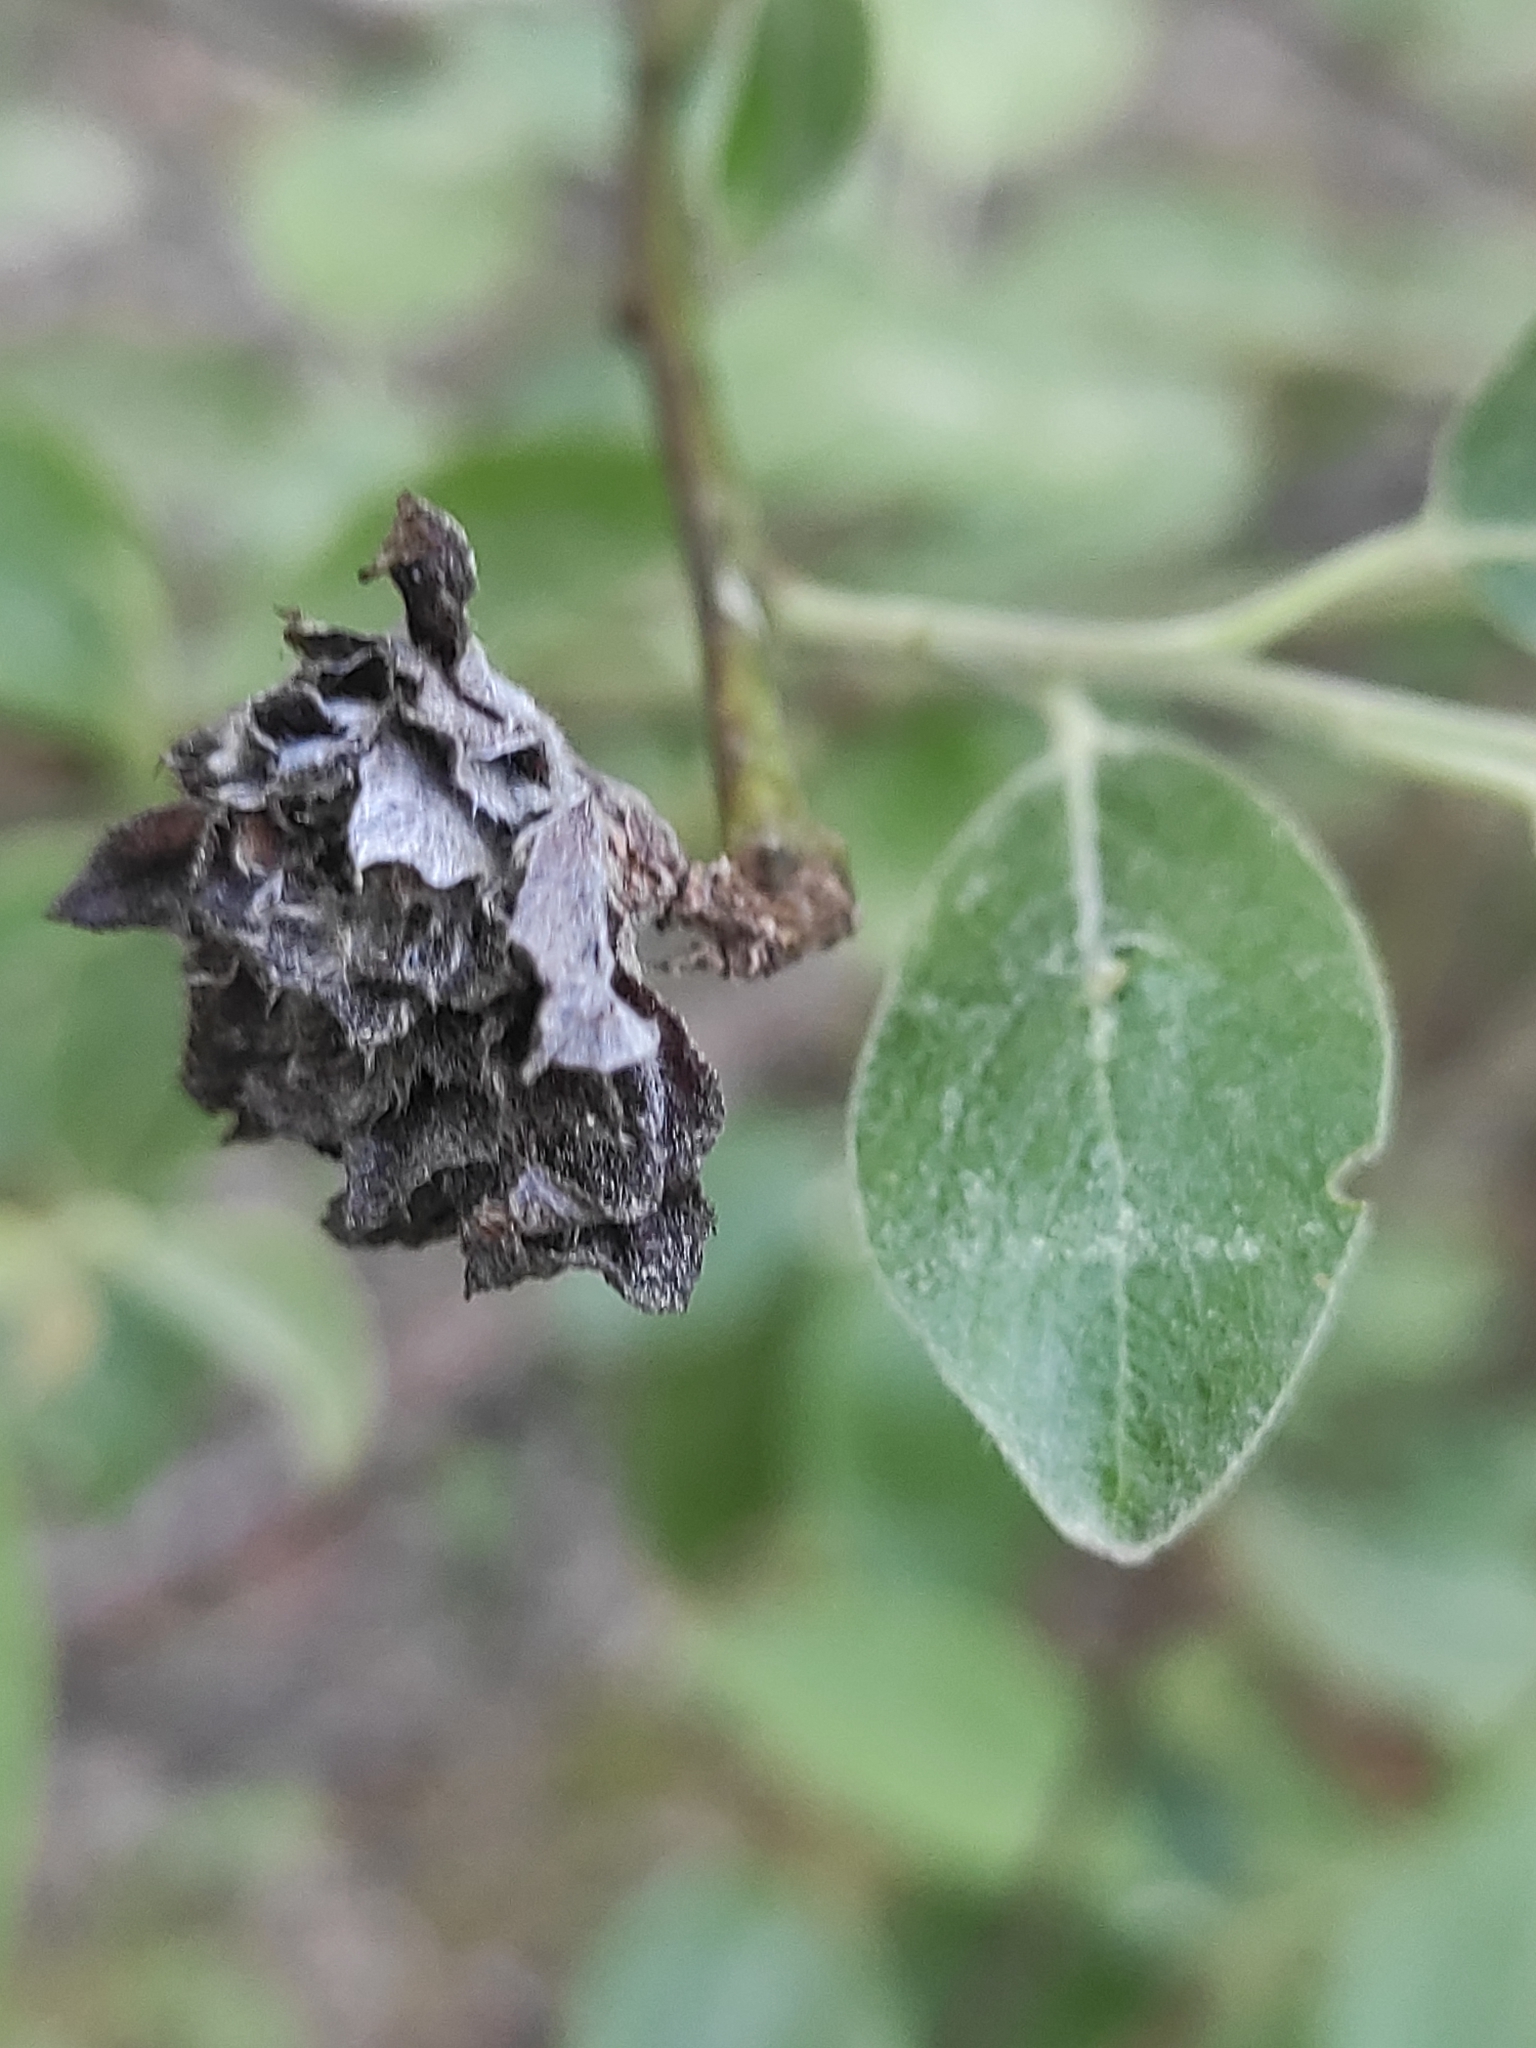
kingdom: Animalia
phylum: Arthropoda
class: Insecta
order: Diptera
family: Cecidomyiidae
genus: Rabdophaga
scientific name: Rabdophaga rosaria
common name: Willow rose gall midge
